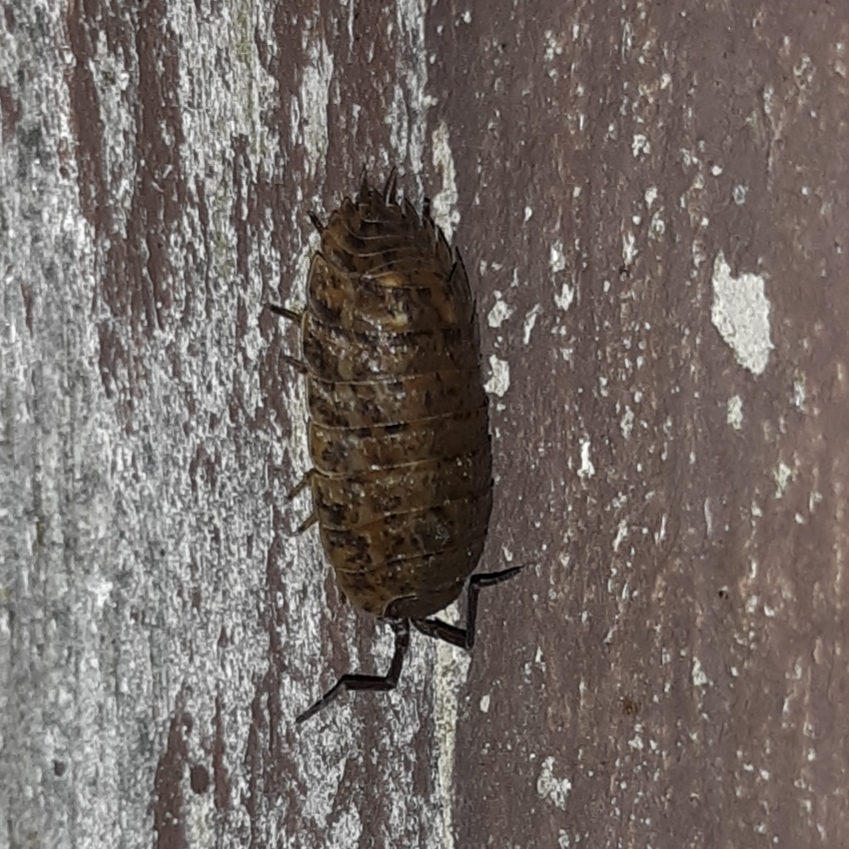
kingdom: Animalia
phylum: Arthropoda
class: Malacostraca
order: Isopoda
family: Trachelipodidae
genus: Trachelipus
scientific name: Trachelipus rathkii
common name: Isopod
